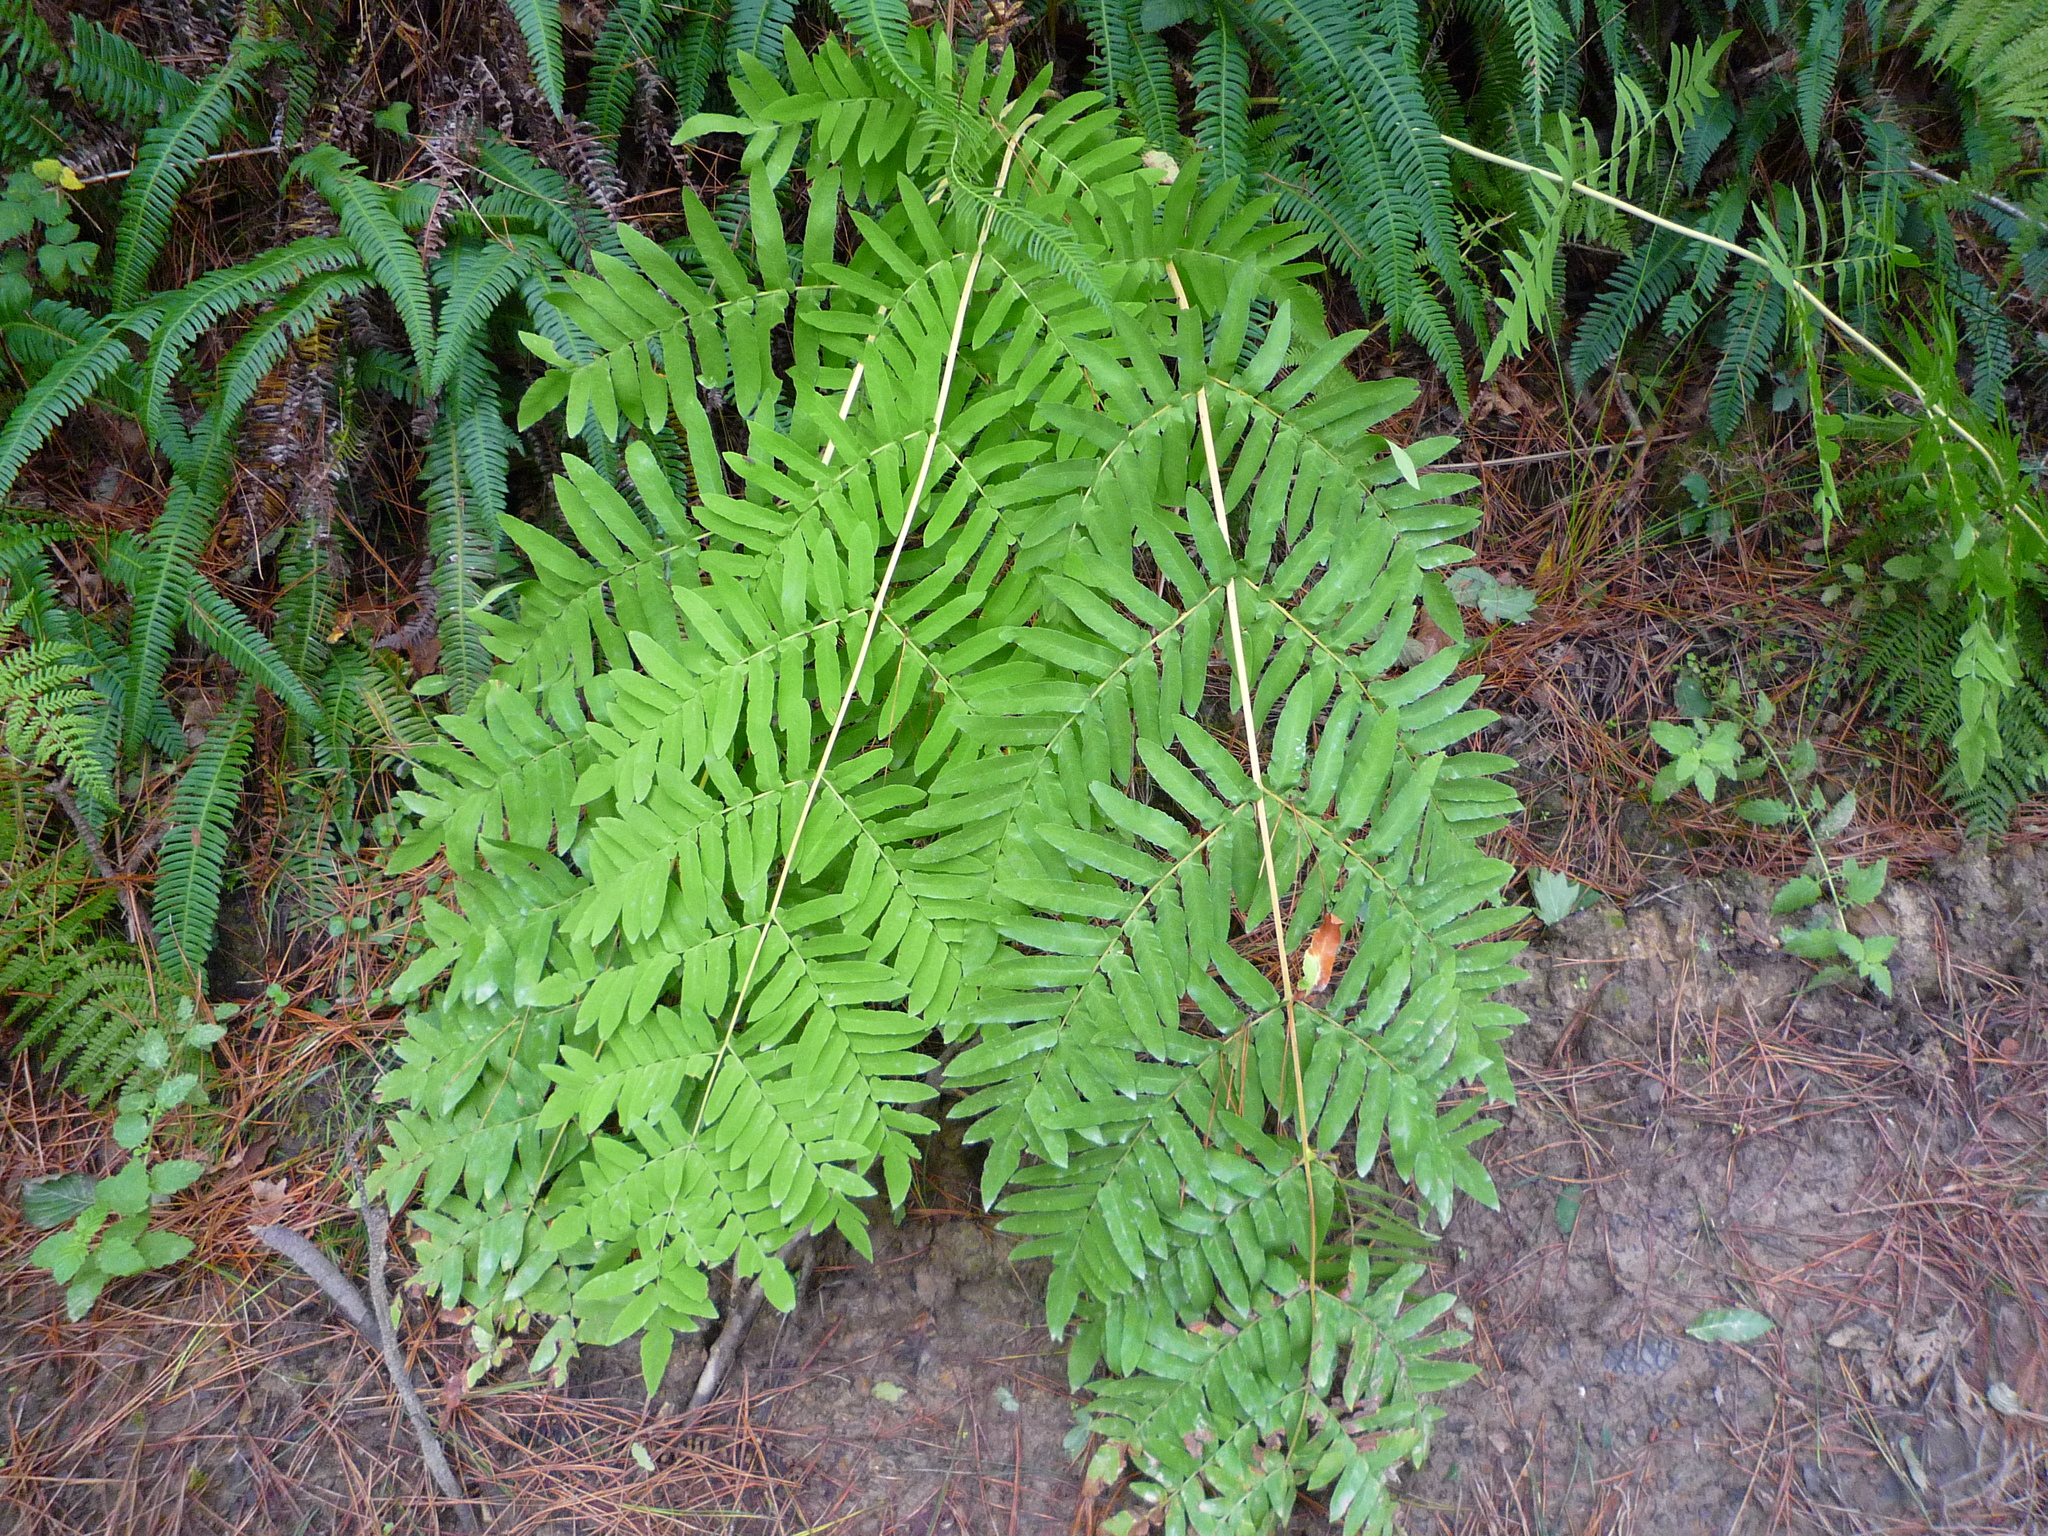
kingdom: Plantae
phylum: Tracheophyta
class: Polypodiopsida
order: Osmundales
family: Osmundaceae
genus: Osmunda
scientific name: Osmunda regalis
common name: Royal fern
